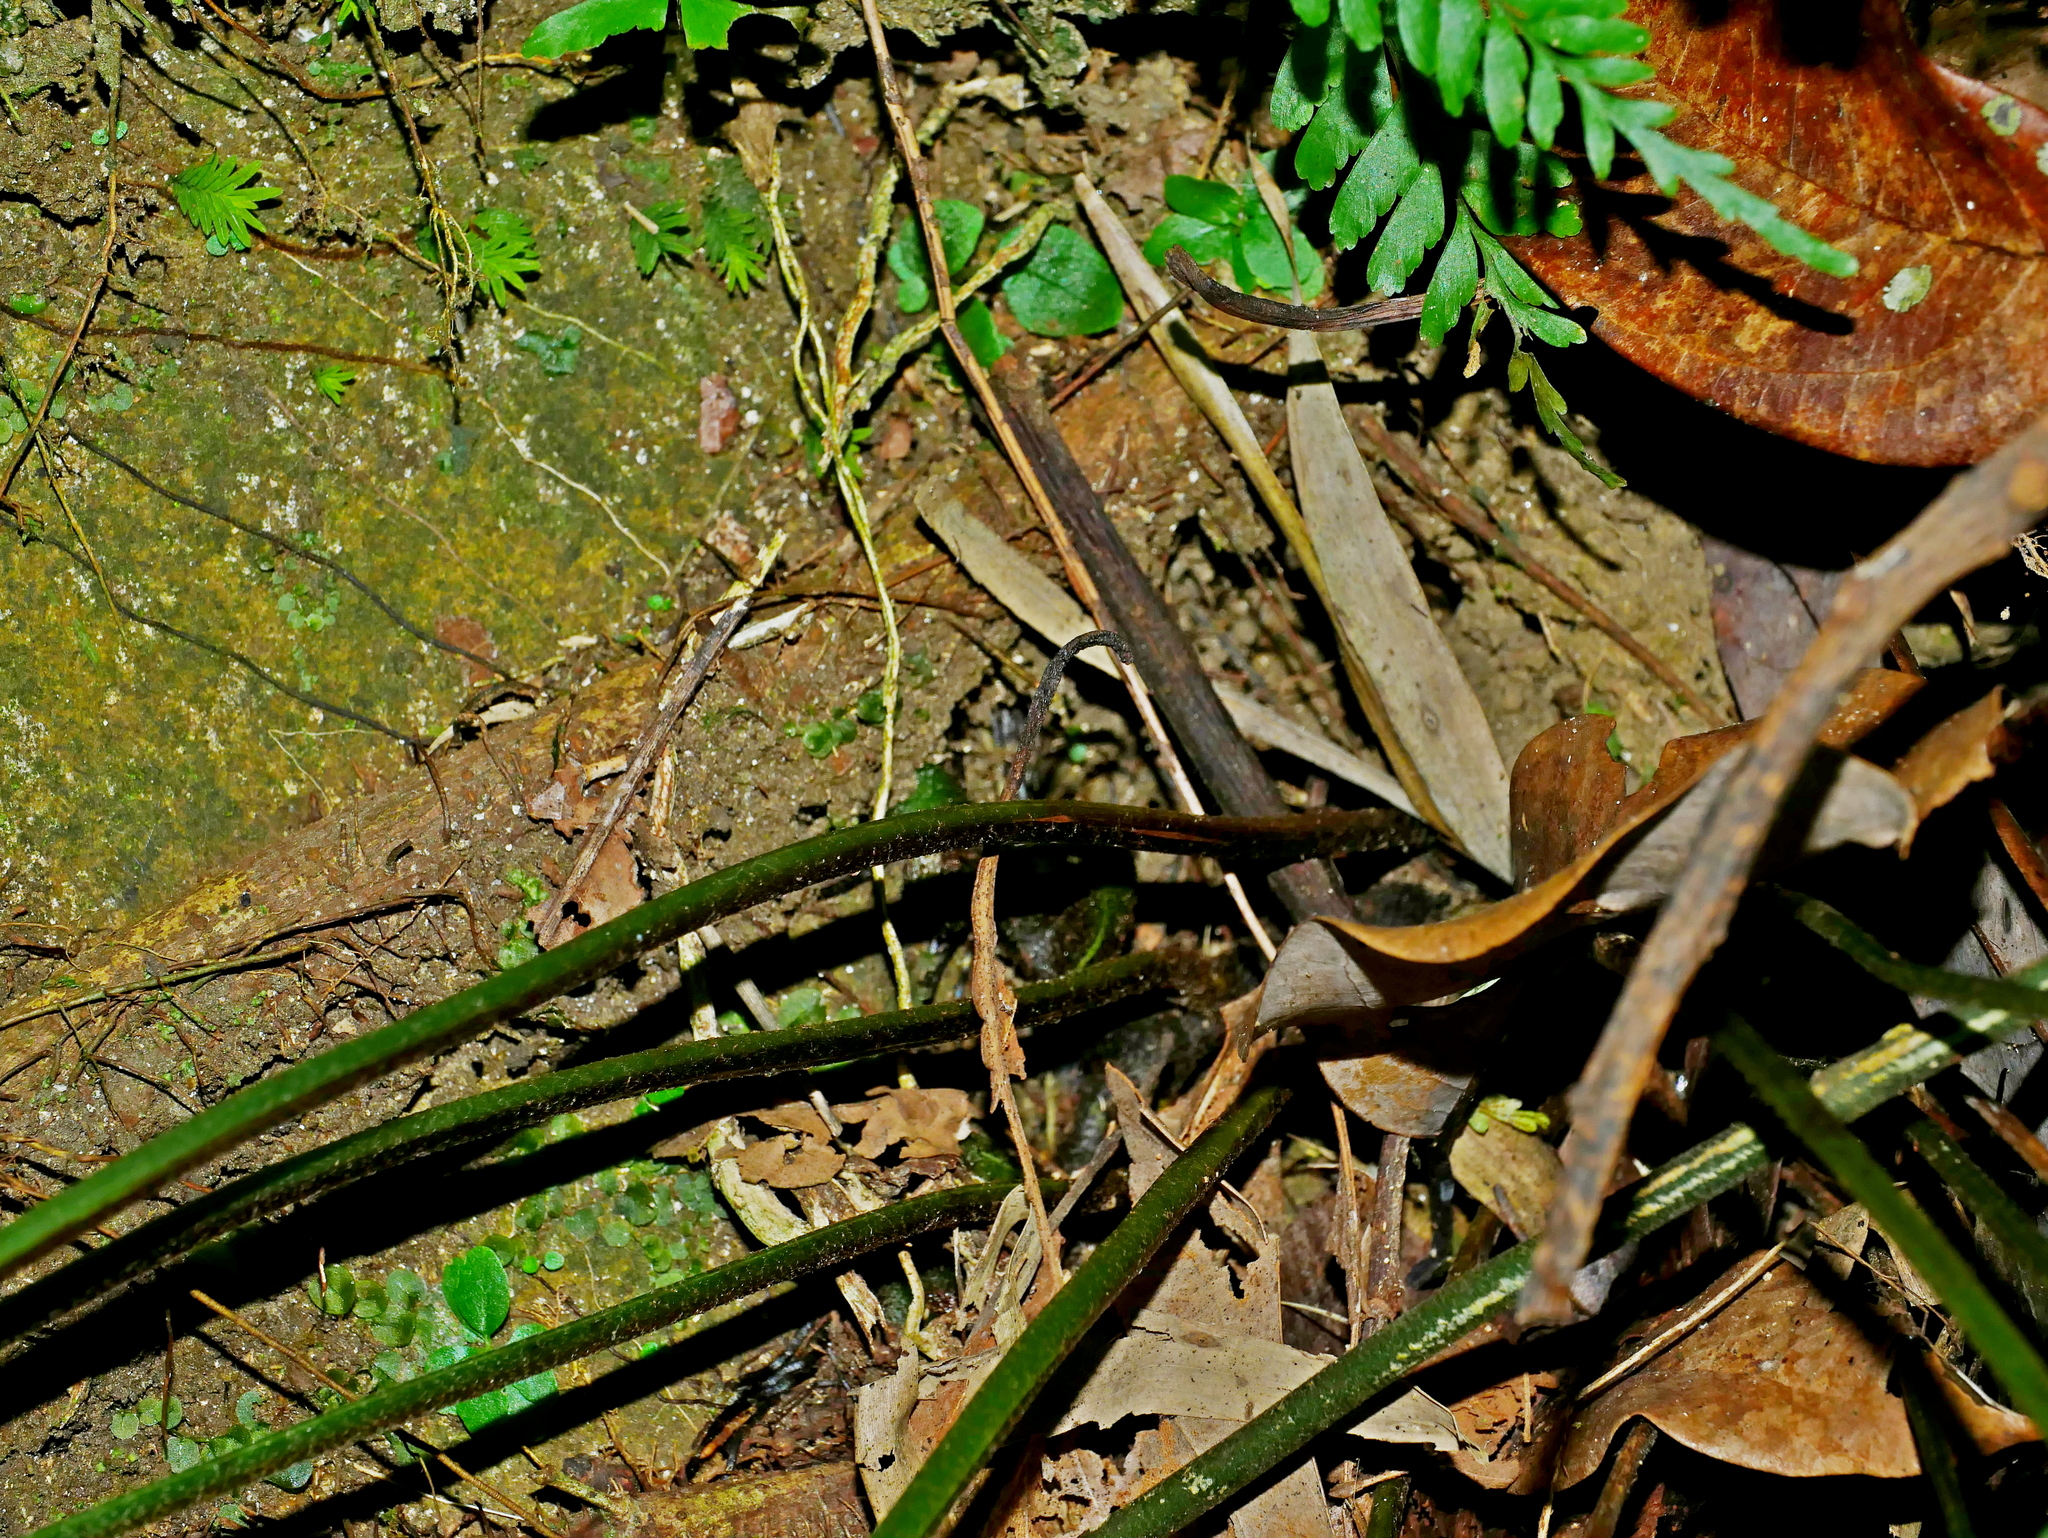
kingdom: Plantae
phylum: Tracheophyta
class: Polypodiopsida
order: Polypodiales
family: Dennstaedtiaceae
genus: Microlepia
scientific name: Microlepia obtusiloba
